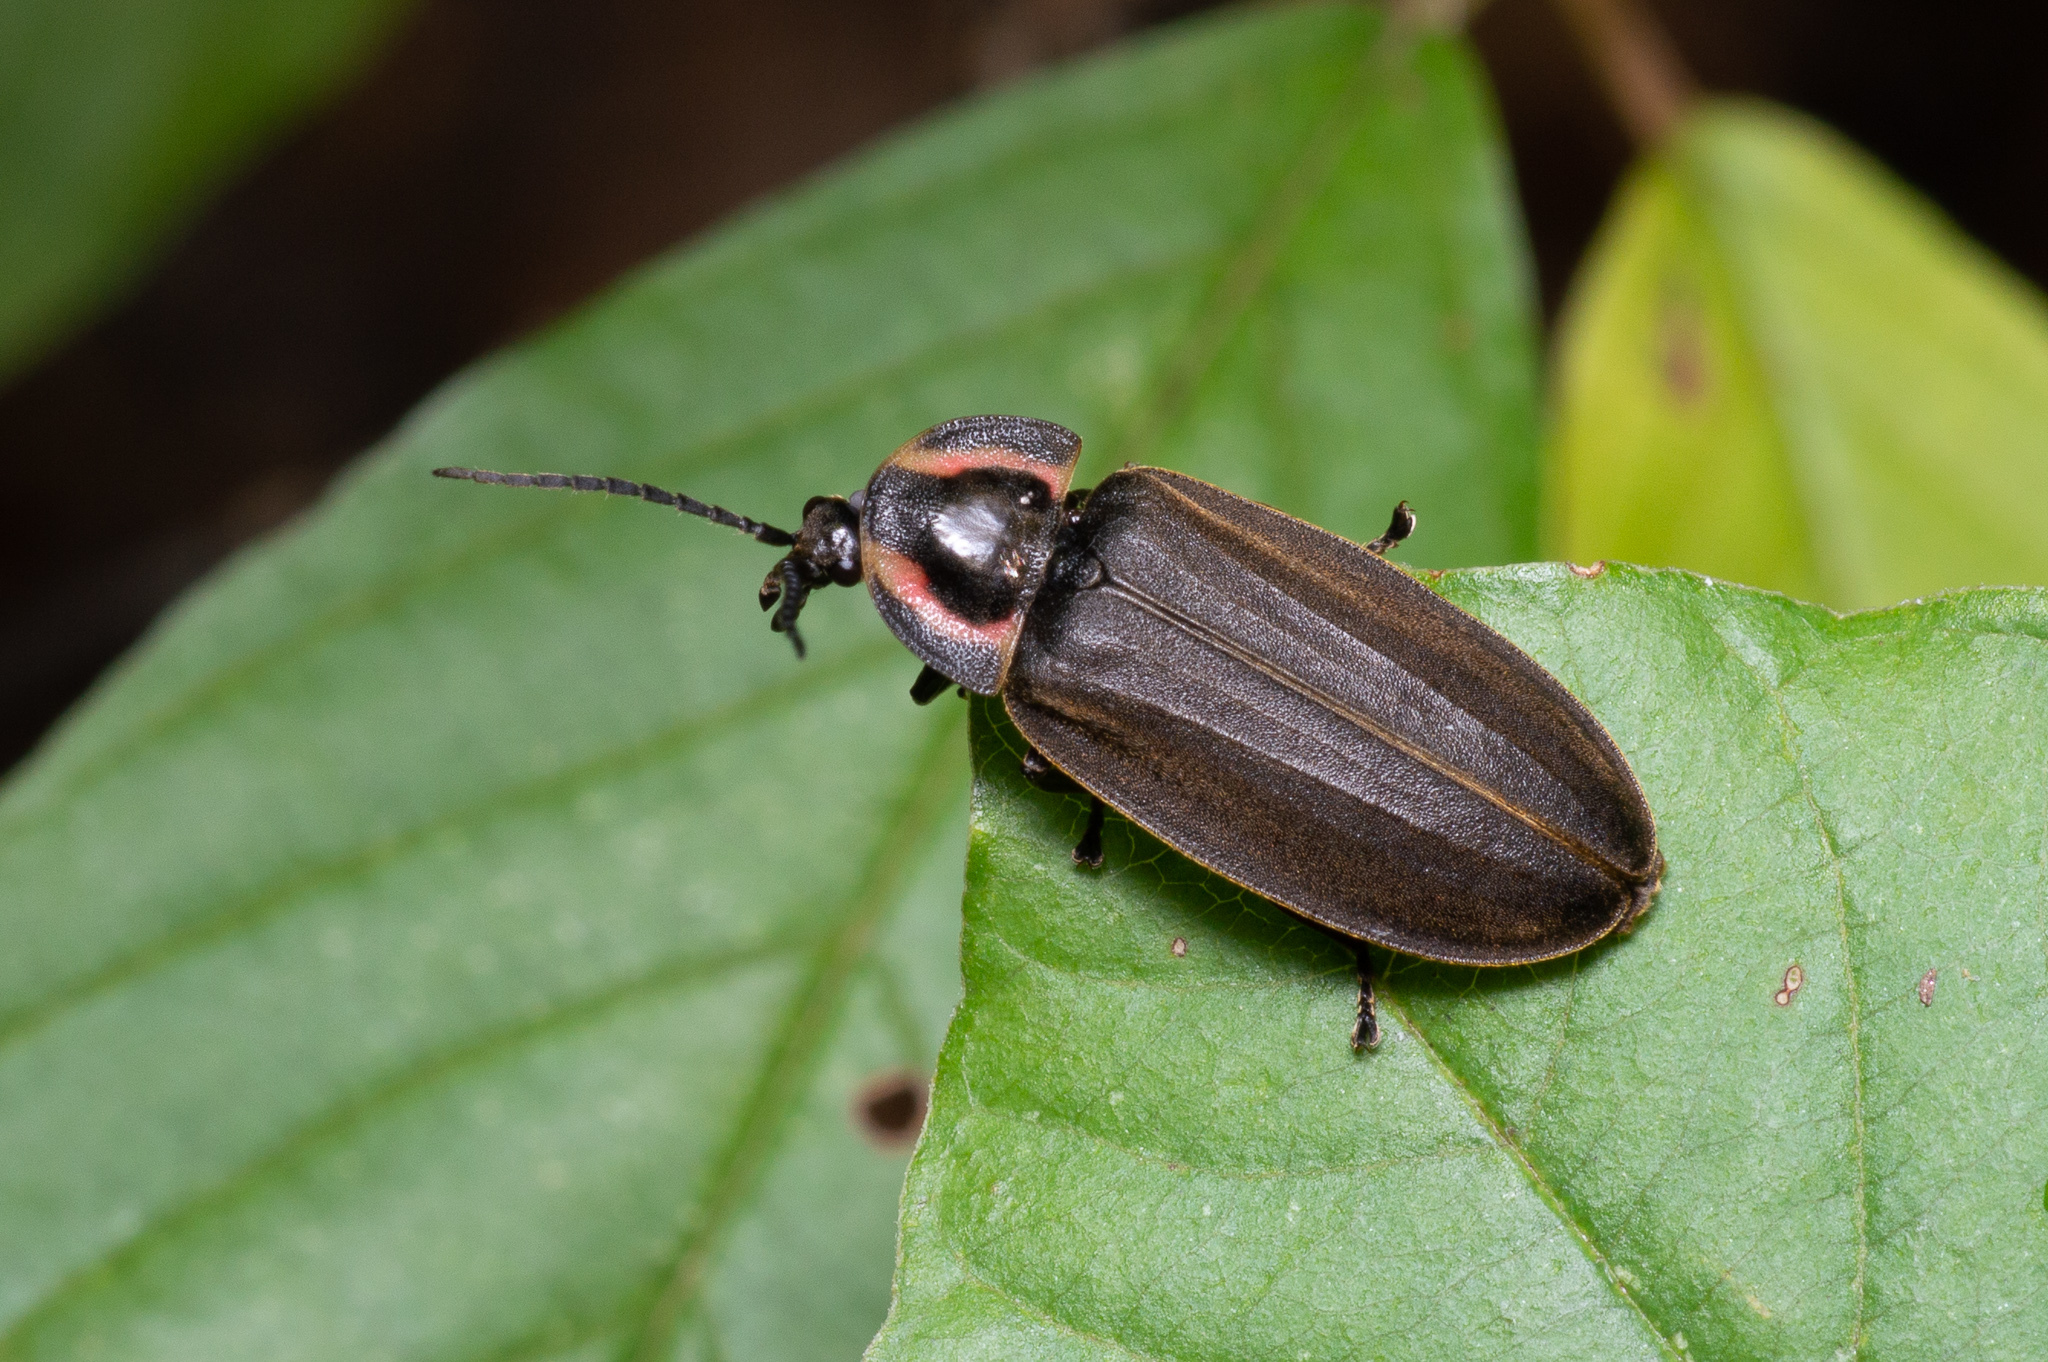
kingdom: Animalia
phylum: Arthropoda
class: Insecta
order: Coleoptera
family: Lampyridae
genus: Photinus
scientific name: Photinus corrusca
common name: Winter firefly
